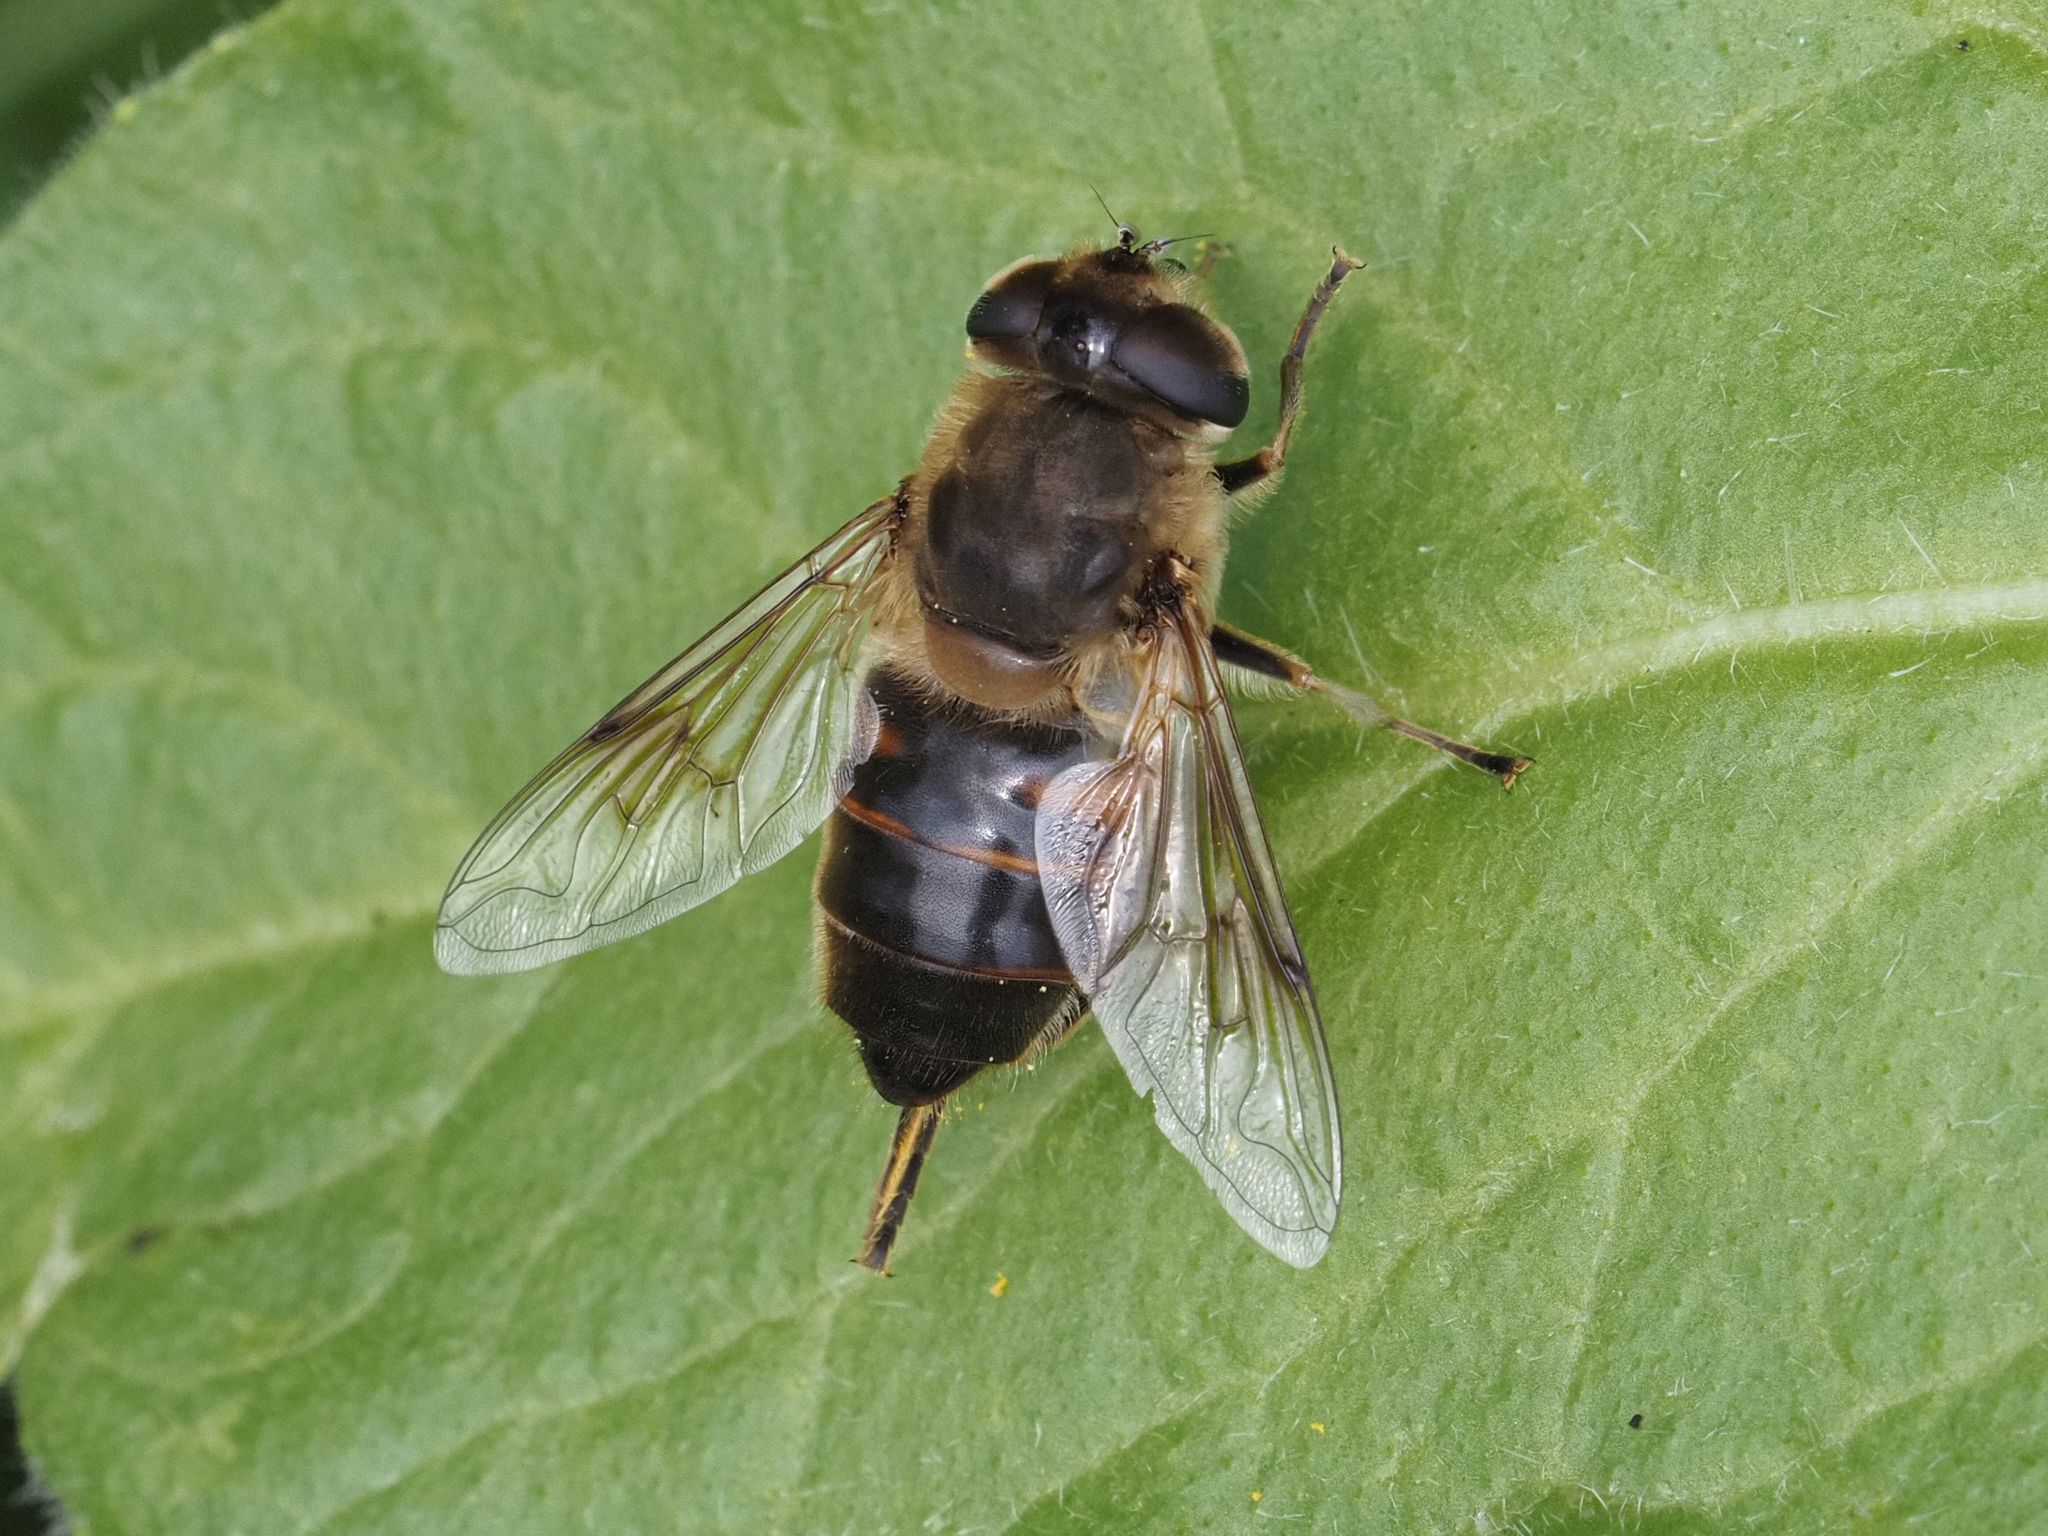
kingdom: Animalia
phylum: Arthropoda
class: Insecta
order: Diptera
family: Syrphidae
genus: Eristalis
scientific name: Eristalis tenax
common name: Drone fly
